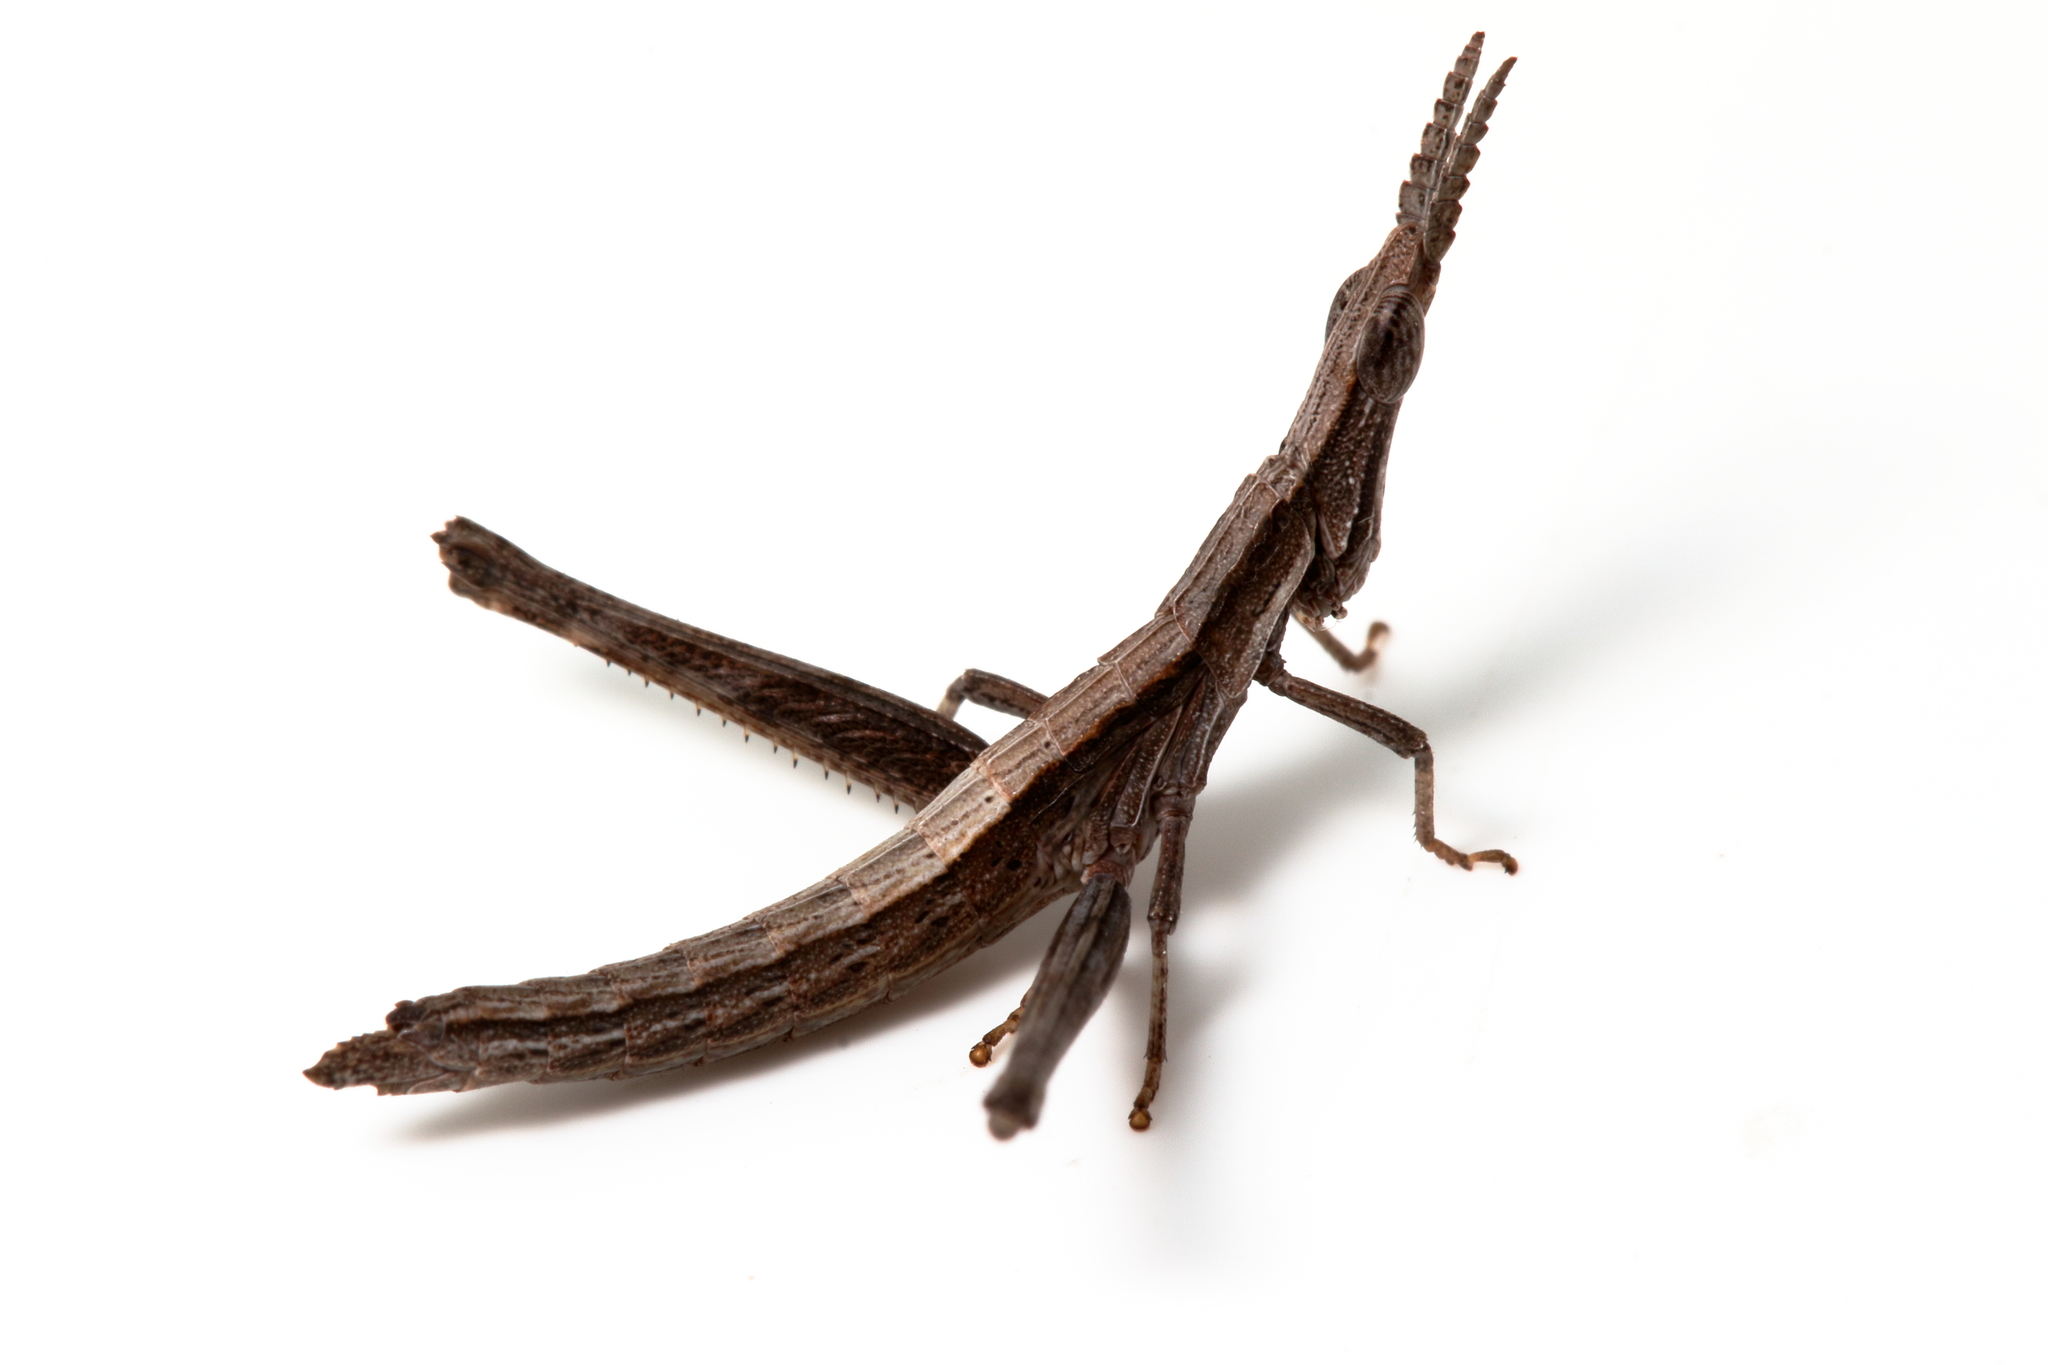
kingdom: Animalia
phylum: Arthropoda
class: Insecta
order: Orthoptera
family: Morabidae
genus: Vandiemenella
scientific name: Vandiemenella viatica
